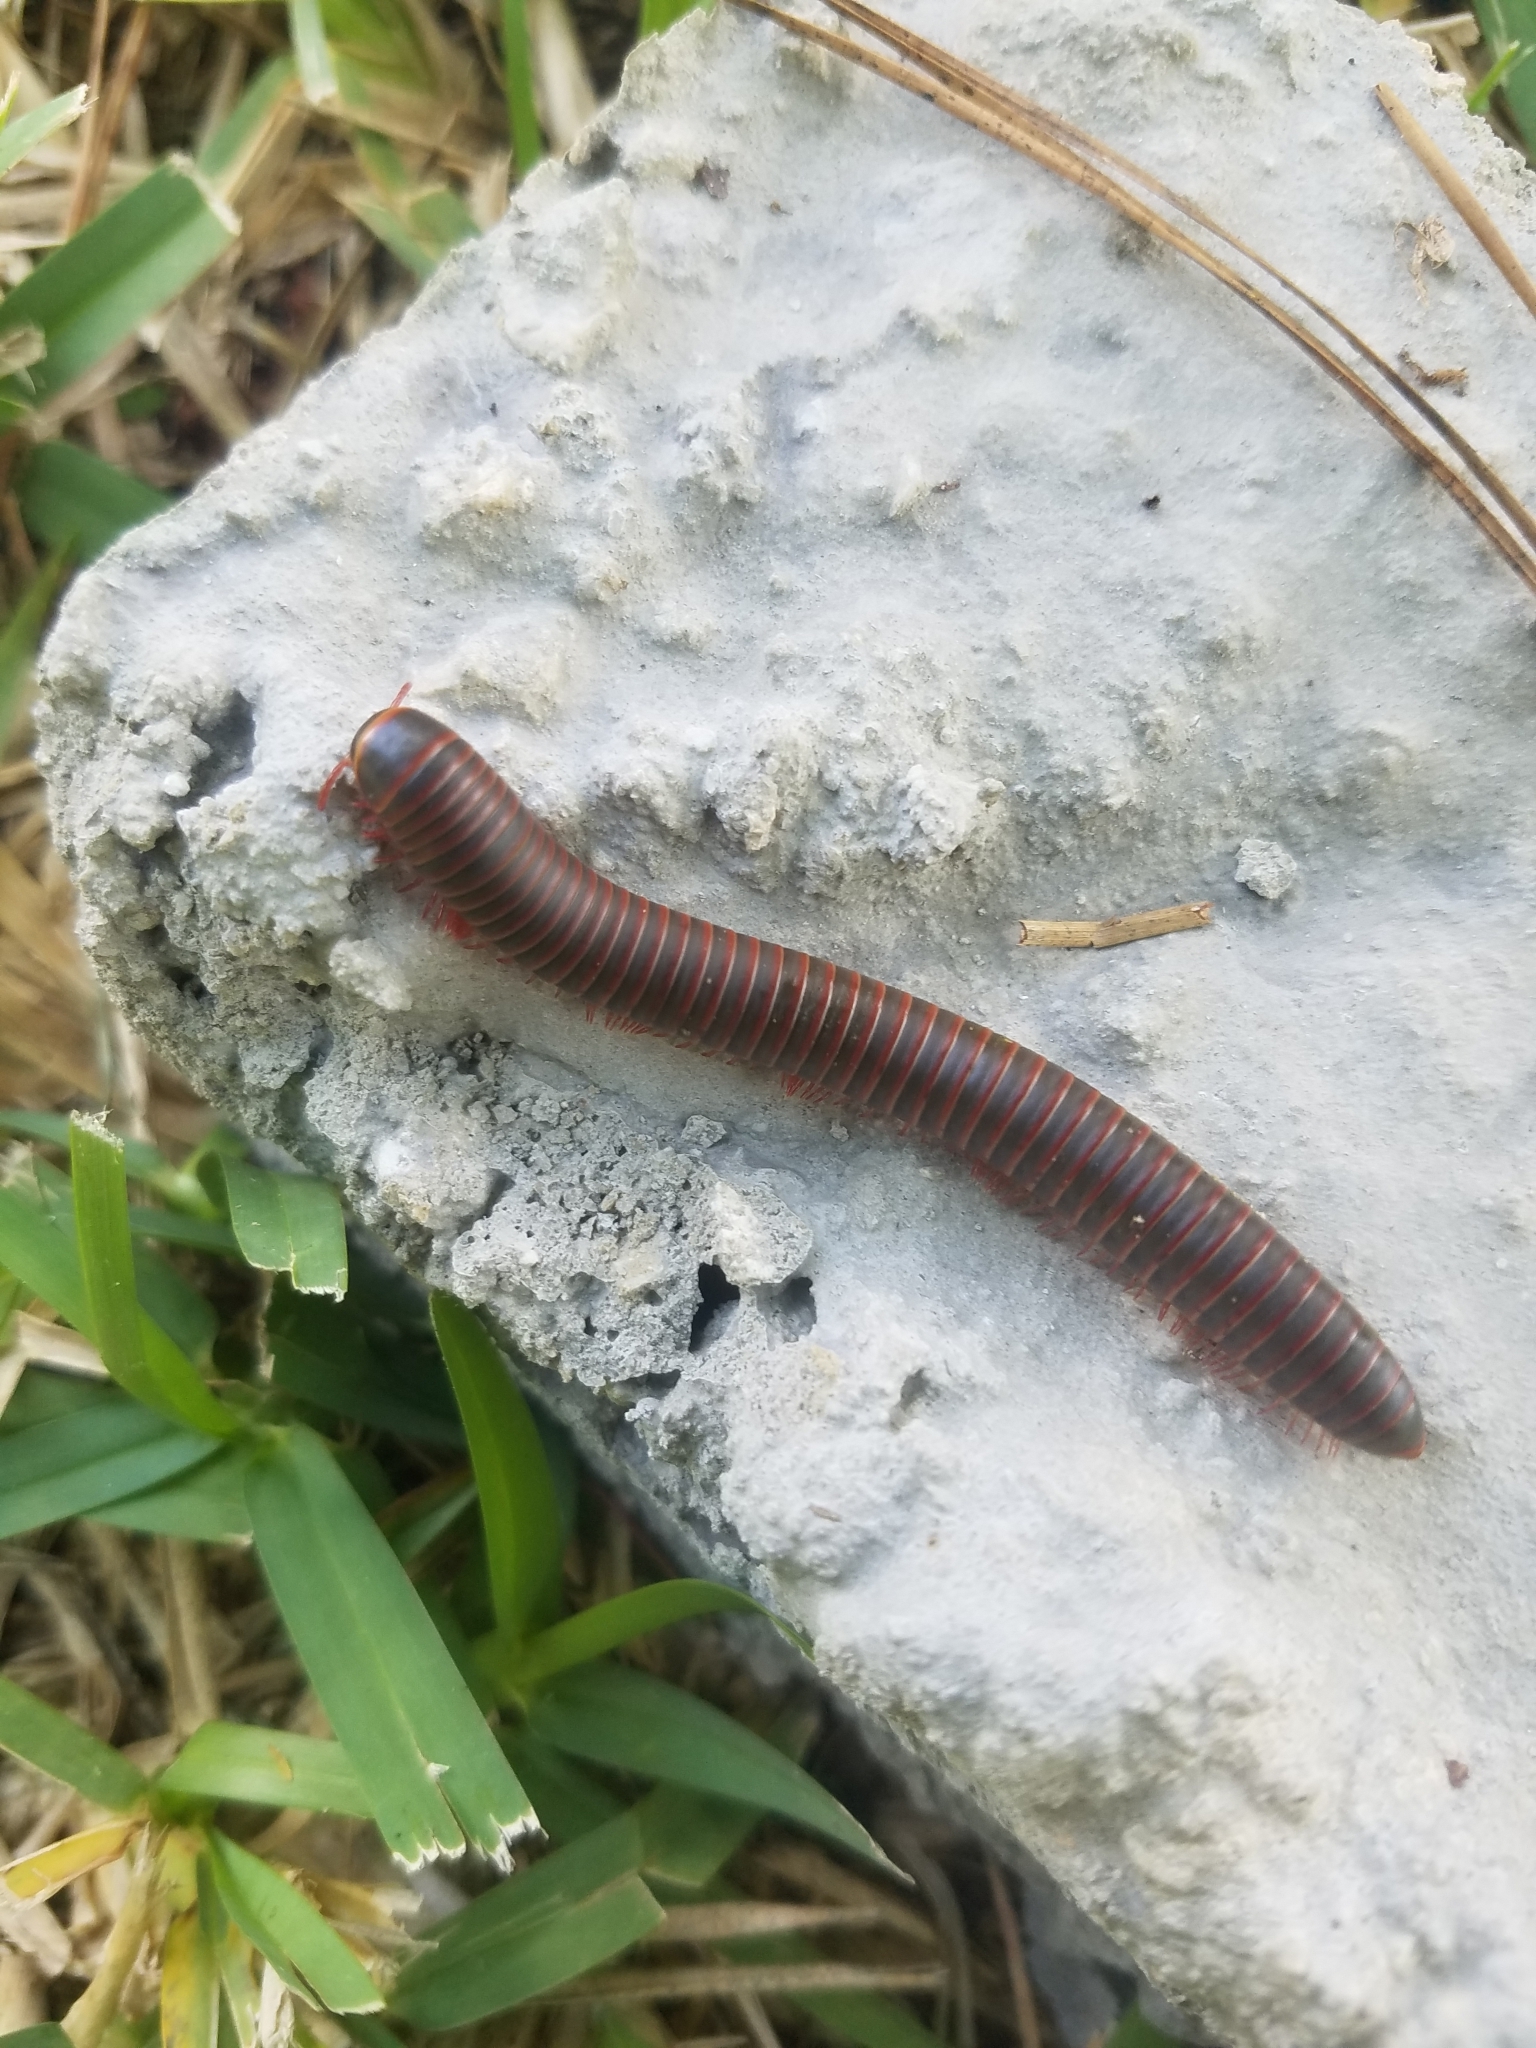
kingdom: Animalia
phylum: Arthropoda
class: Diplopoda
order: Spirobolida
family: Spirobolidae
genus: Narceus
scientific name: Narceus
